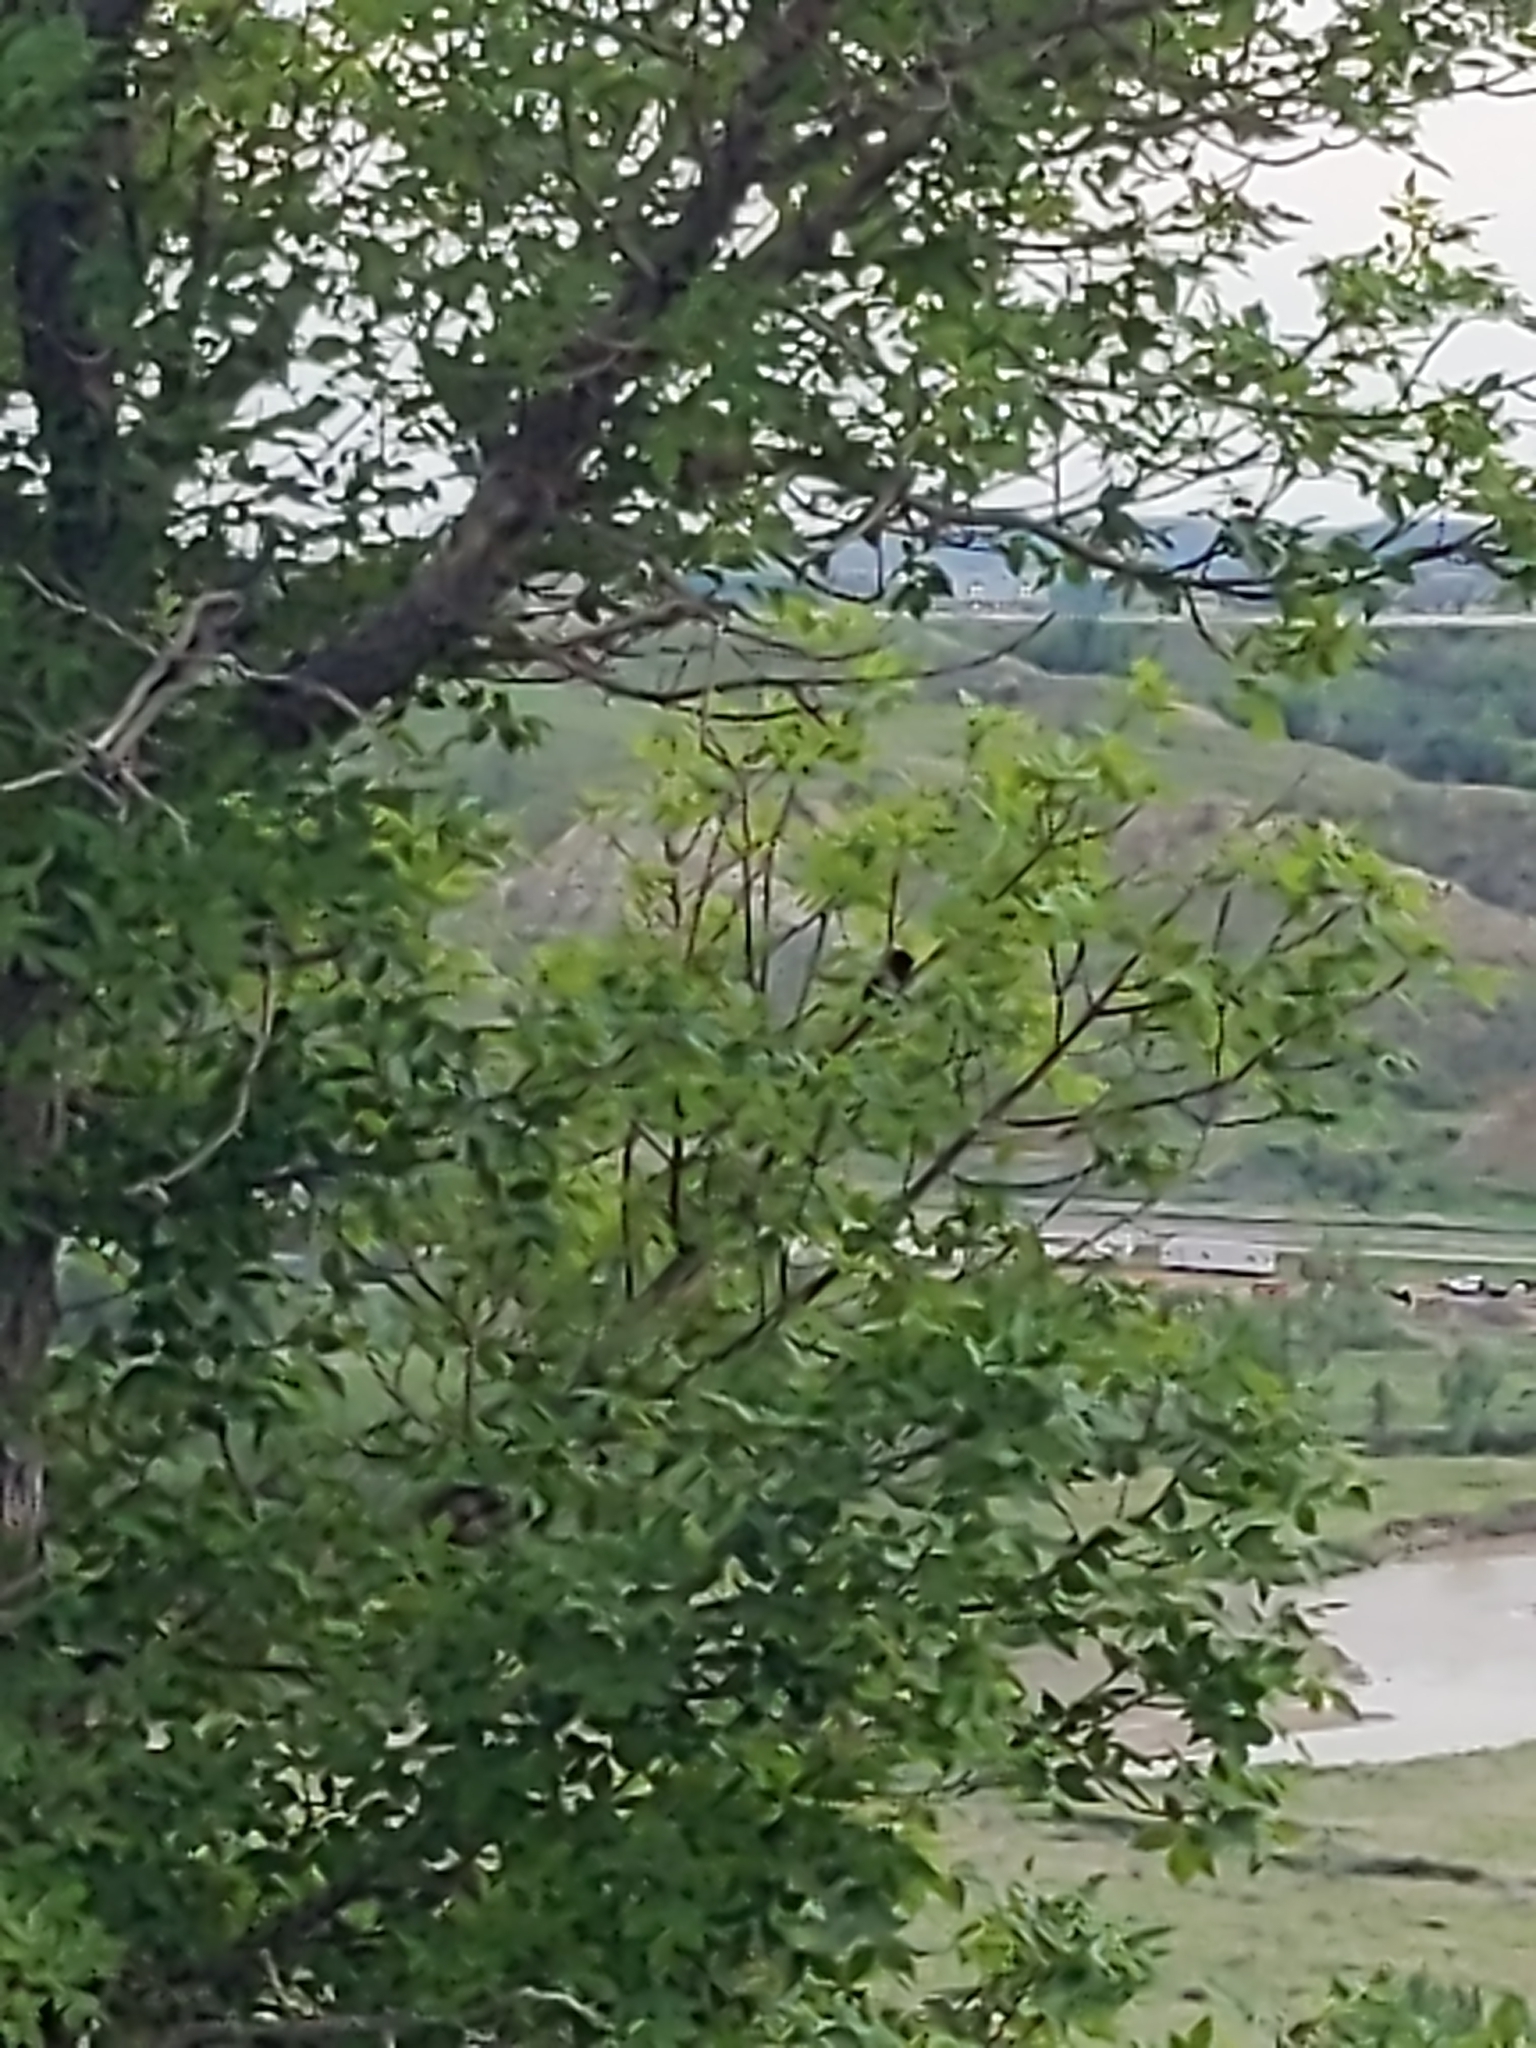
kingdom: Animalia
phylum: Chordata
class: Aves
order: Passeriformes
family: Passerellidae
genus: Pipilo
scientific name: Pipilo maculatus
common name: Spotted towhee
